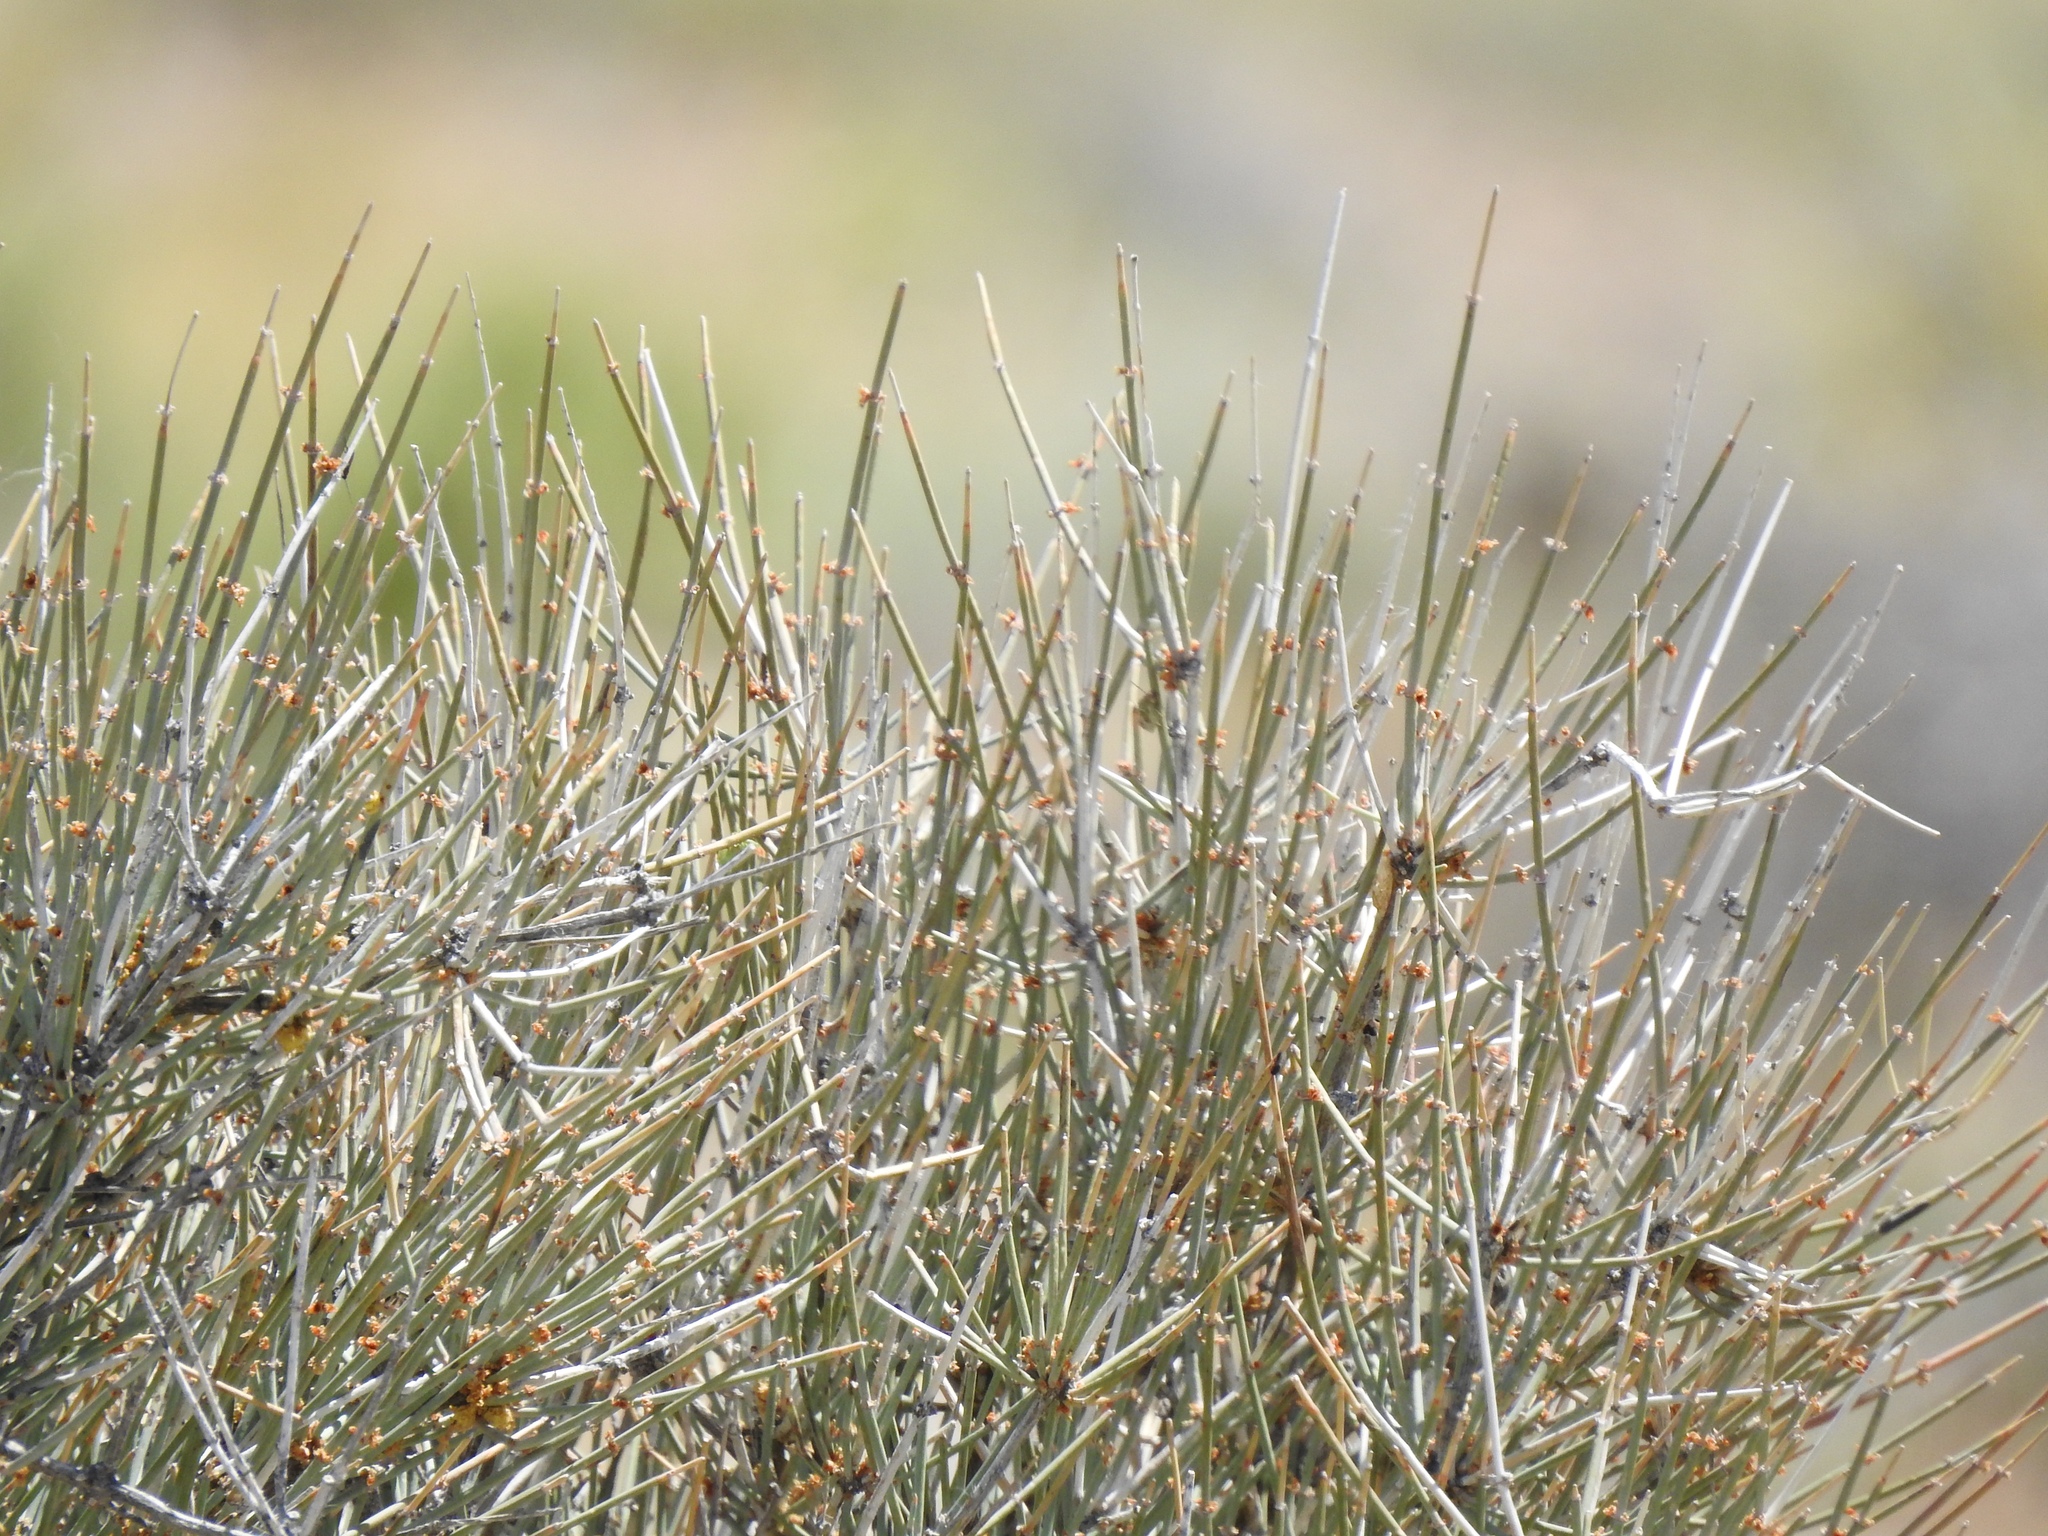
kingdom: Plantae
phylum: Tracheophyta
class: Gnetopsida
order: Ephedrales
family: Ephedraceae
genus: Ephedra
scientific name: Ephedra nevadensis
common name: Gray ephedra
